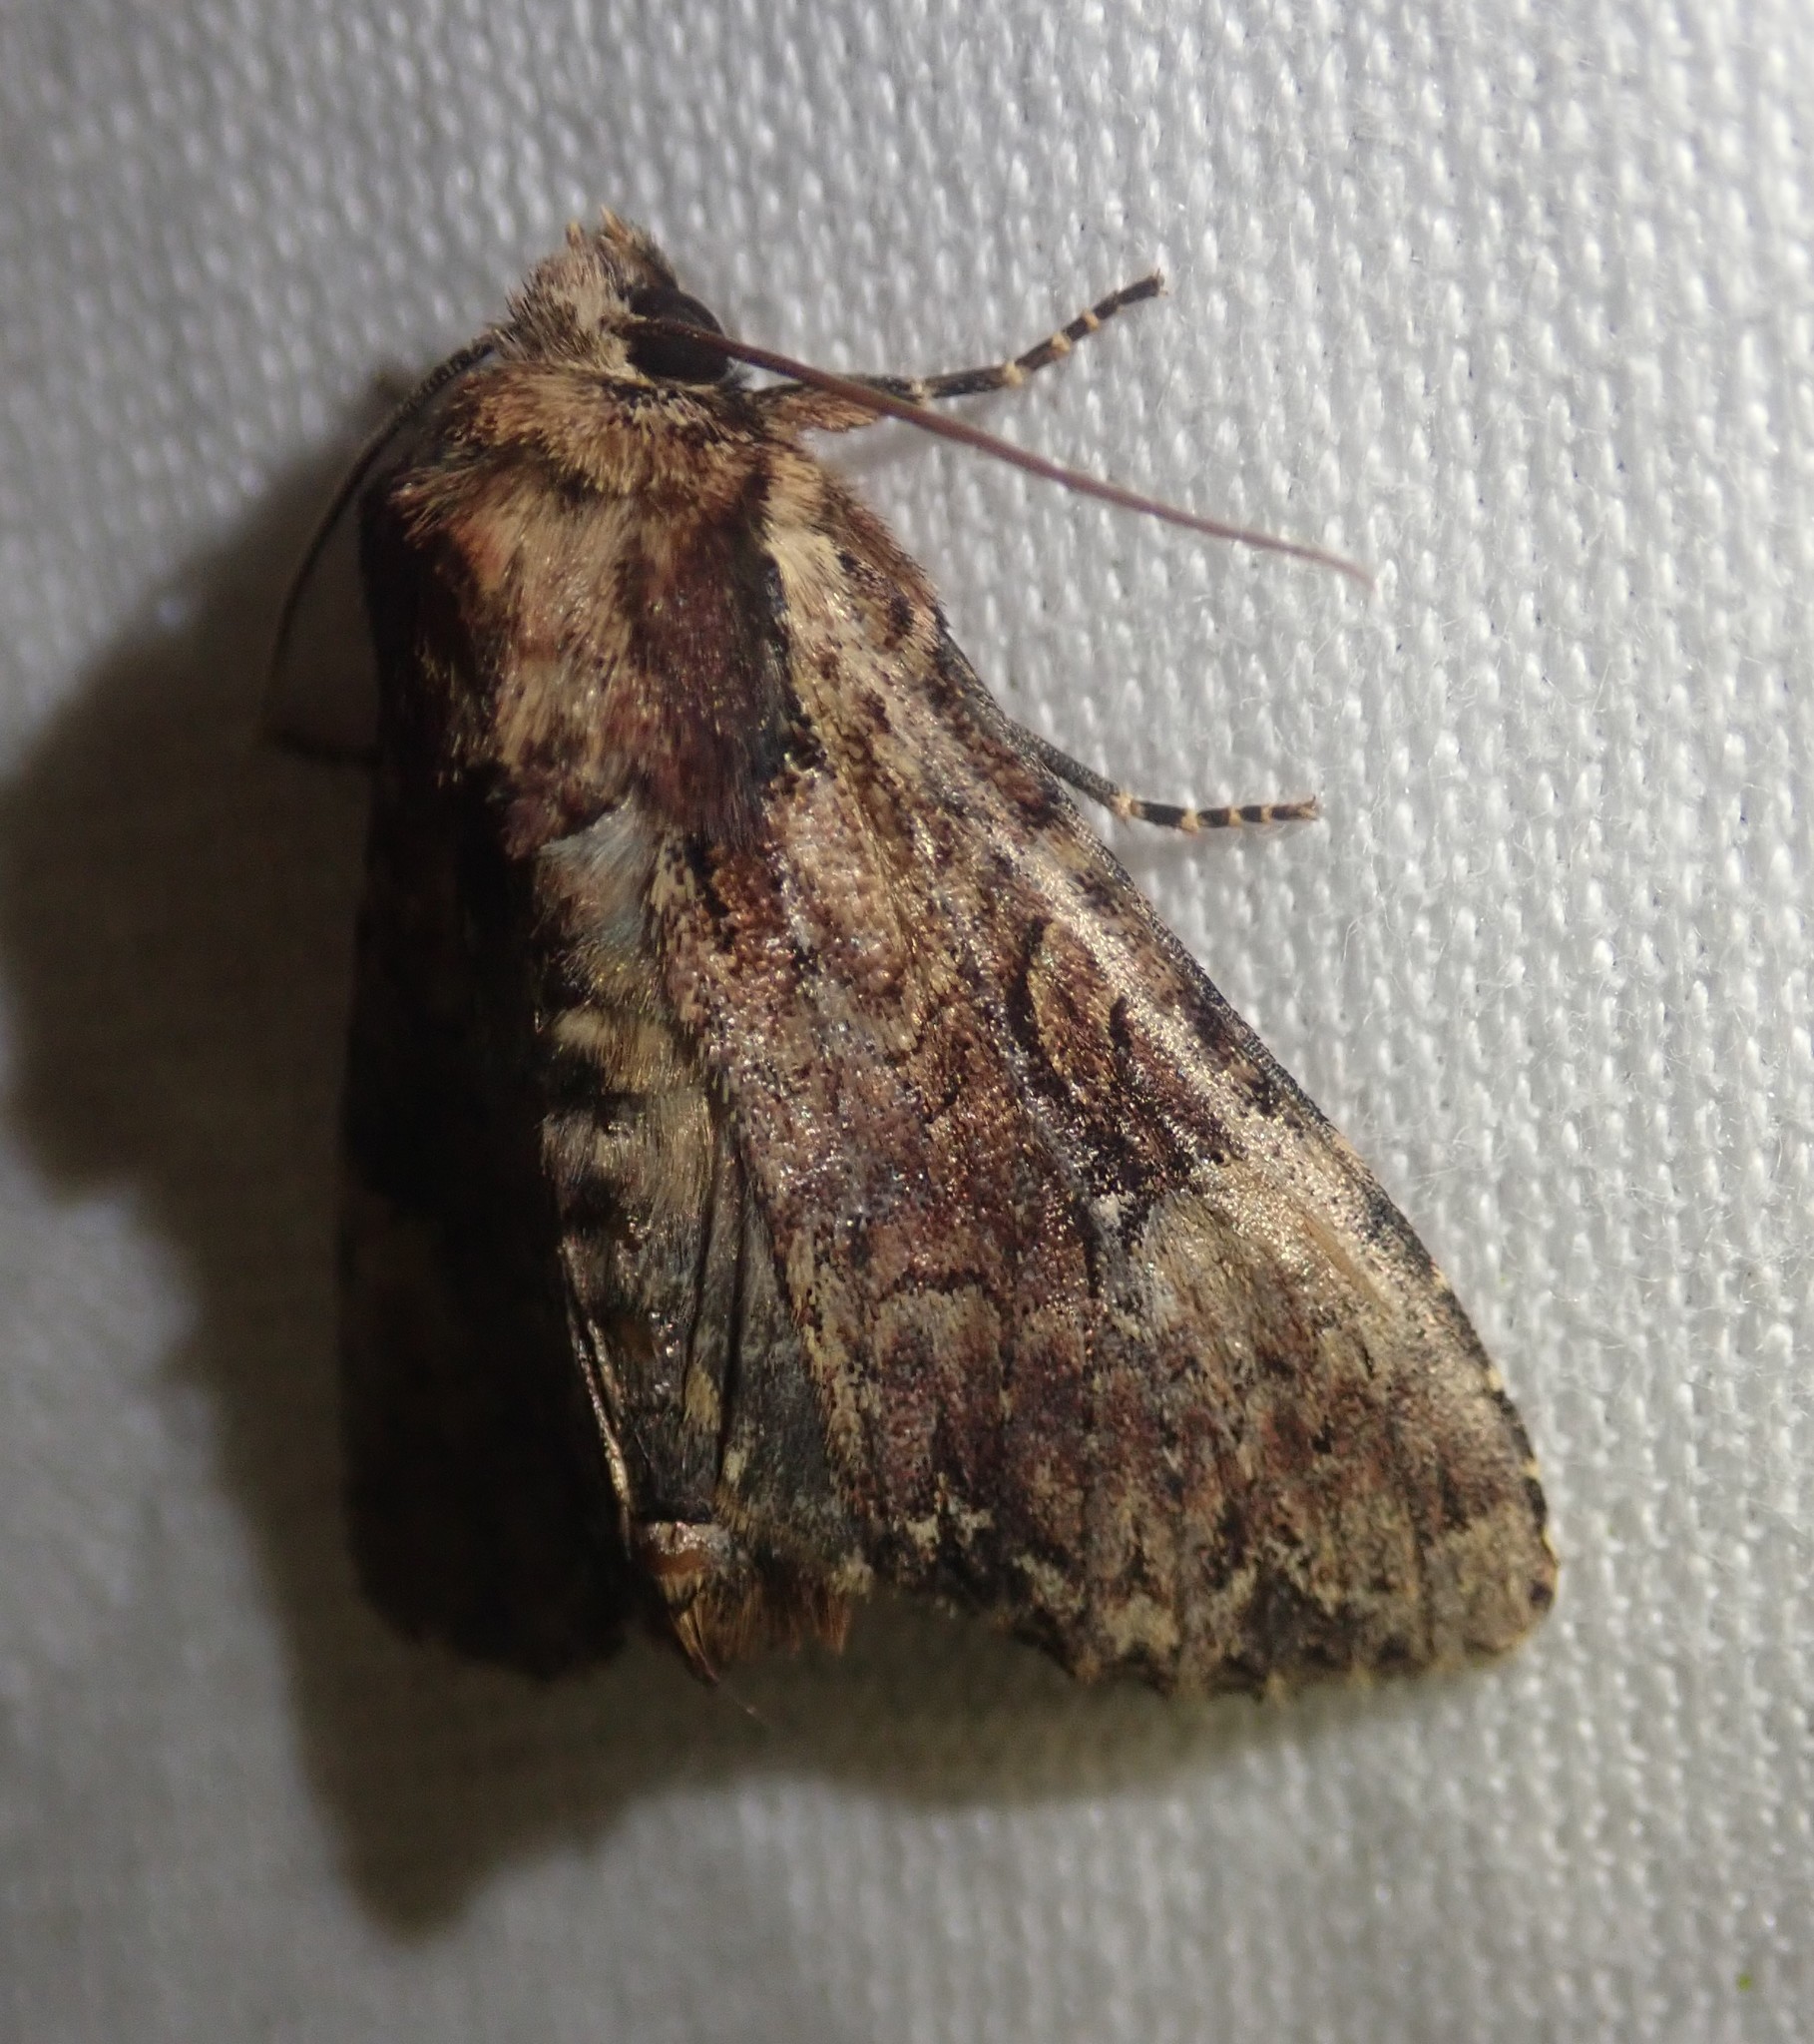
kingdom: Animalia
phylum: Arthropoda
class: Insecta
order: Lepidoptera
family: Noctuidae
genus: Apamea
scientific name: Apamea epomidion
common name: Clouded brindle
